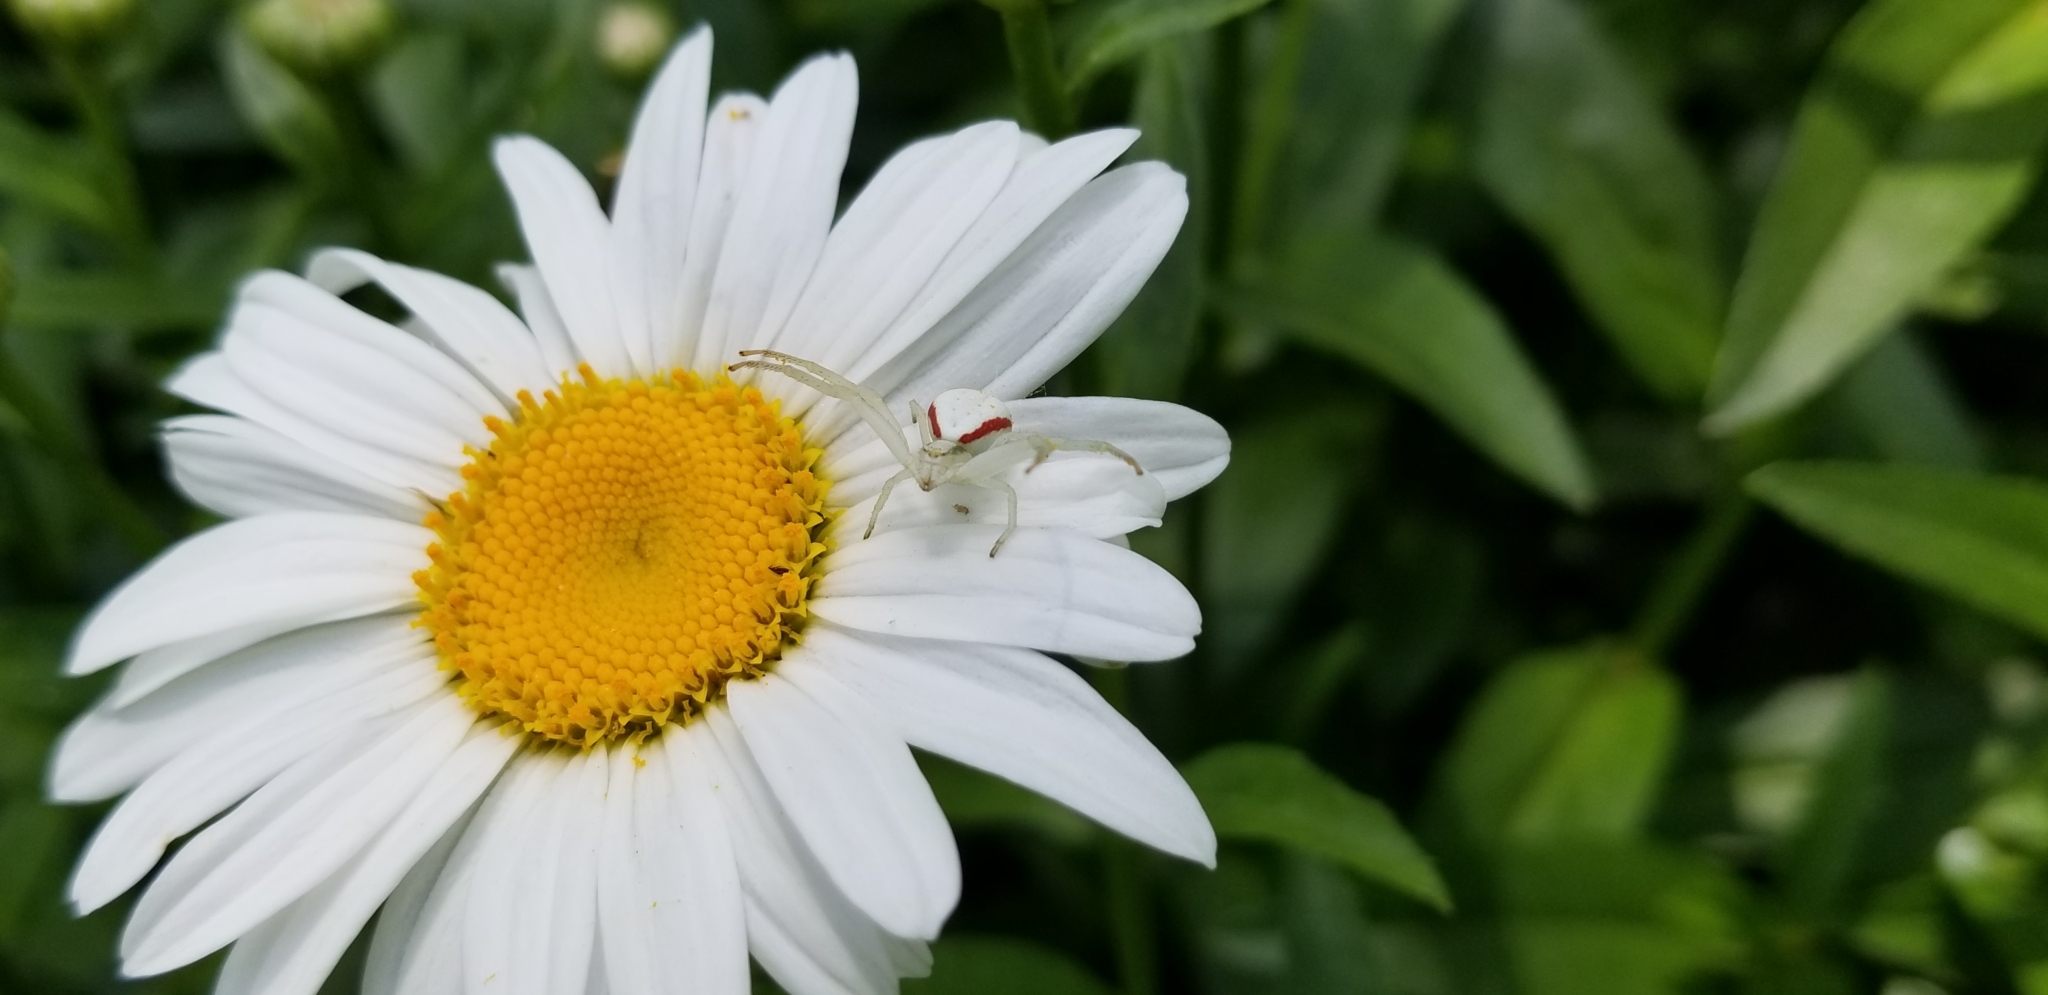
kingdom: Animalia
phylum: Arthropoda
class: Arachnida
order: Araneae
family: Thomisidae
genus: Misumena
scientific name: Misumena vatia
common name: Goldenrod crab spider
